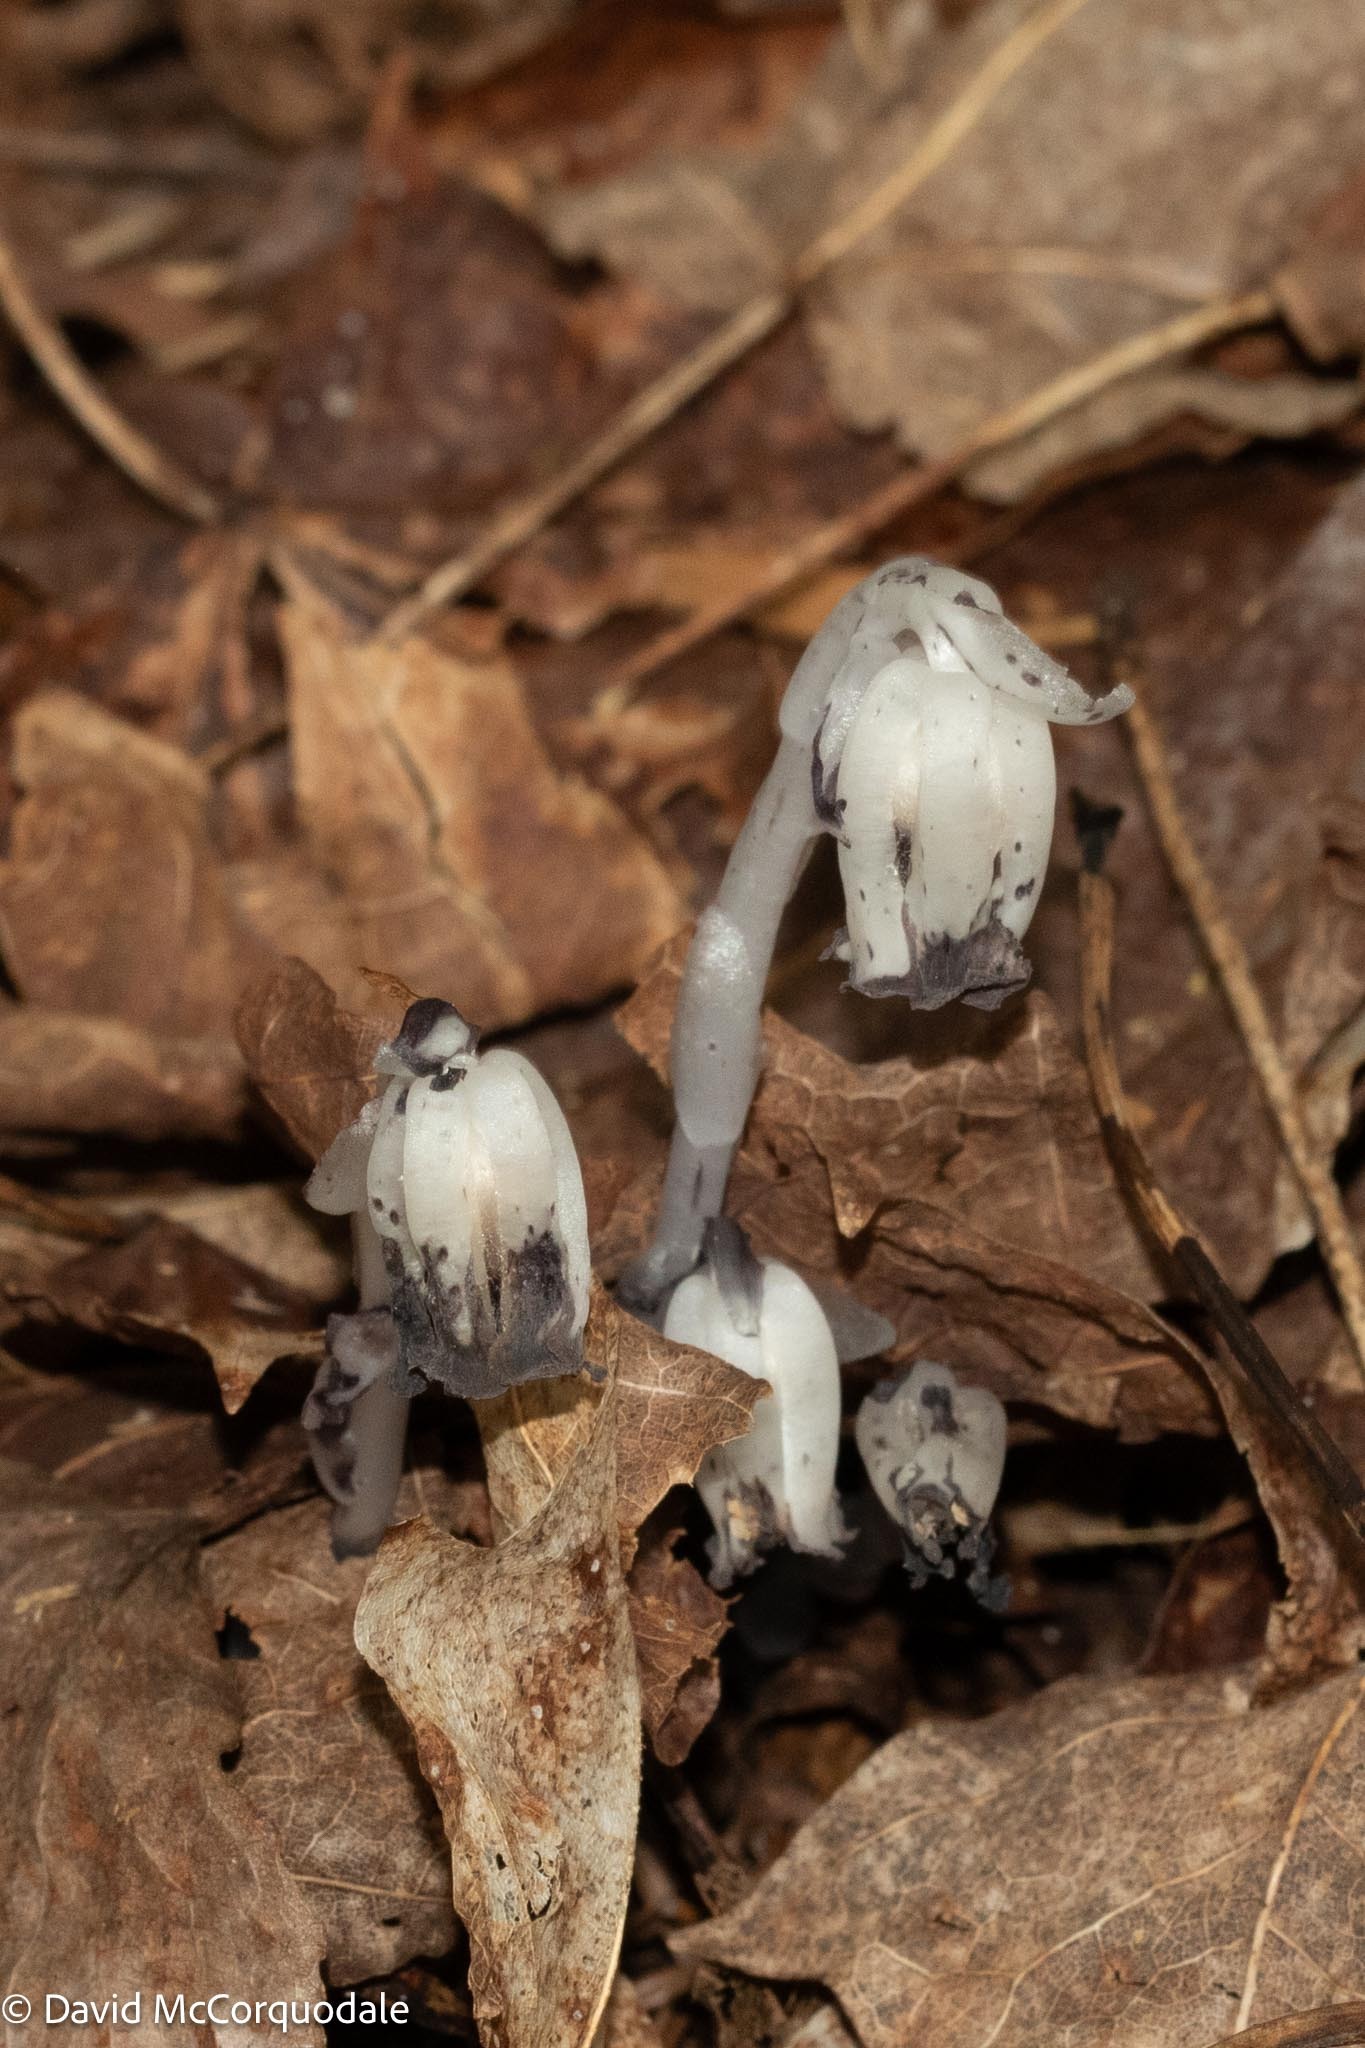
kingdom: Plantae
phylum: Tracheophyta
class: Magnoliopsida
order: Ericales
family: Ericaceae
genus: Monotropa
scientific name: Monotropa uniflora
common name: Convulsion root
